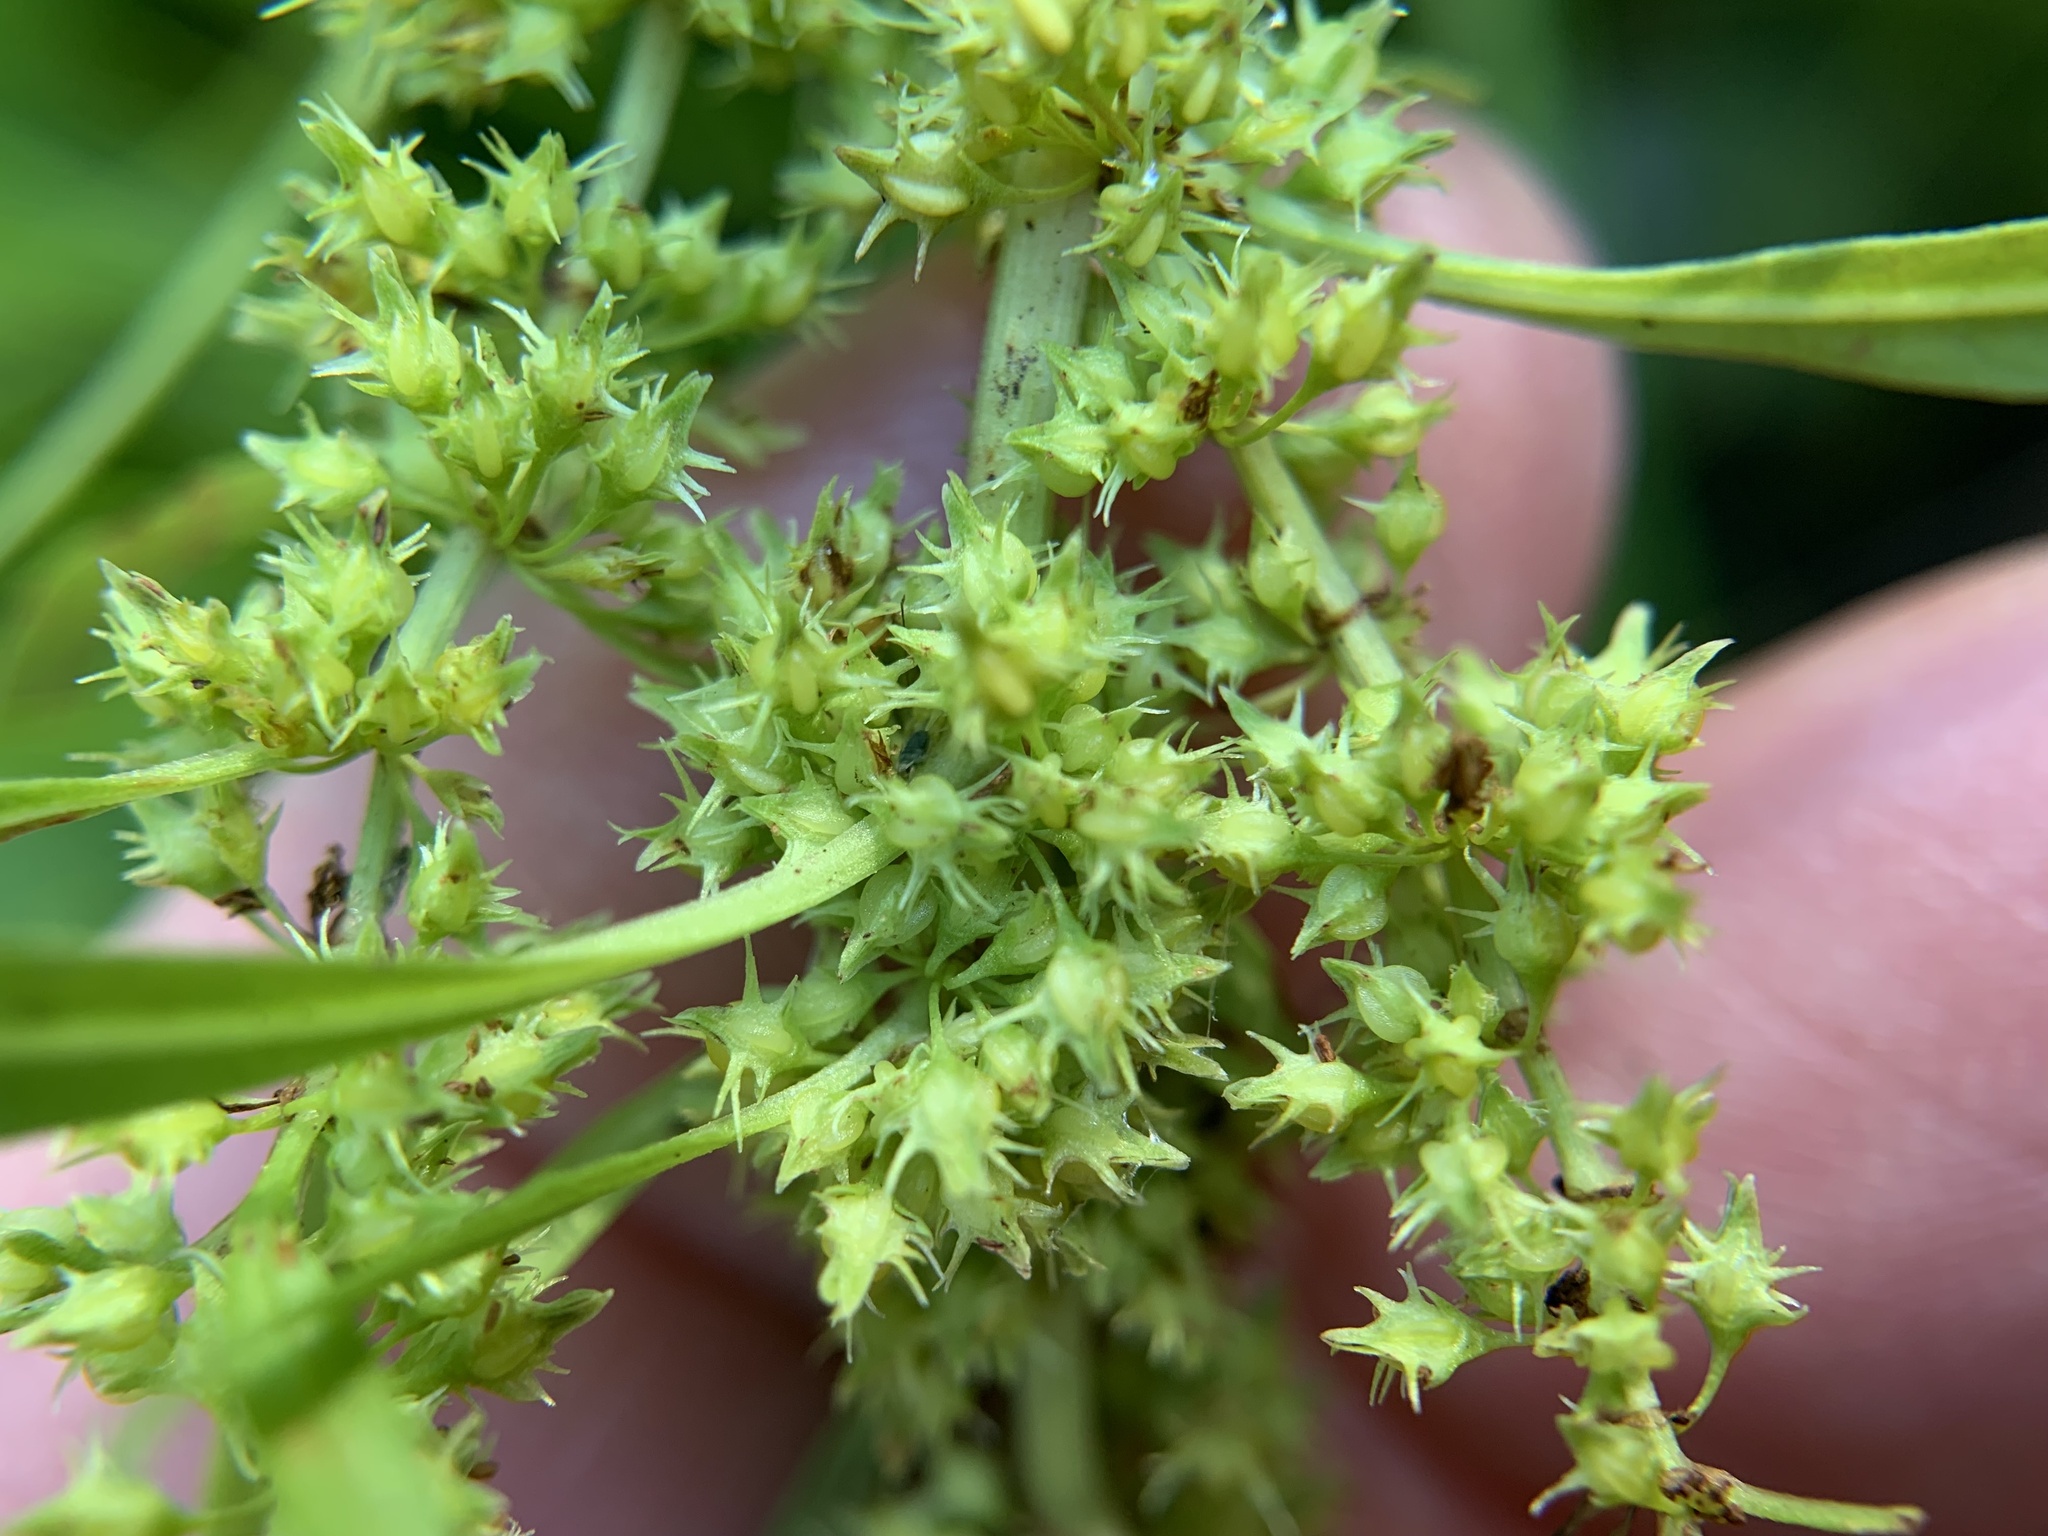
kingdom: Plantae
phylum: Tracheophyta
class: Magnoliopsida
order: Caryophyllales
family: Polygonaceae
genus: Rumex
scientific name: Rumex palustris
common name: Marsh dock
